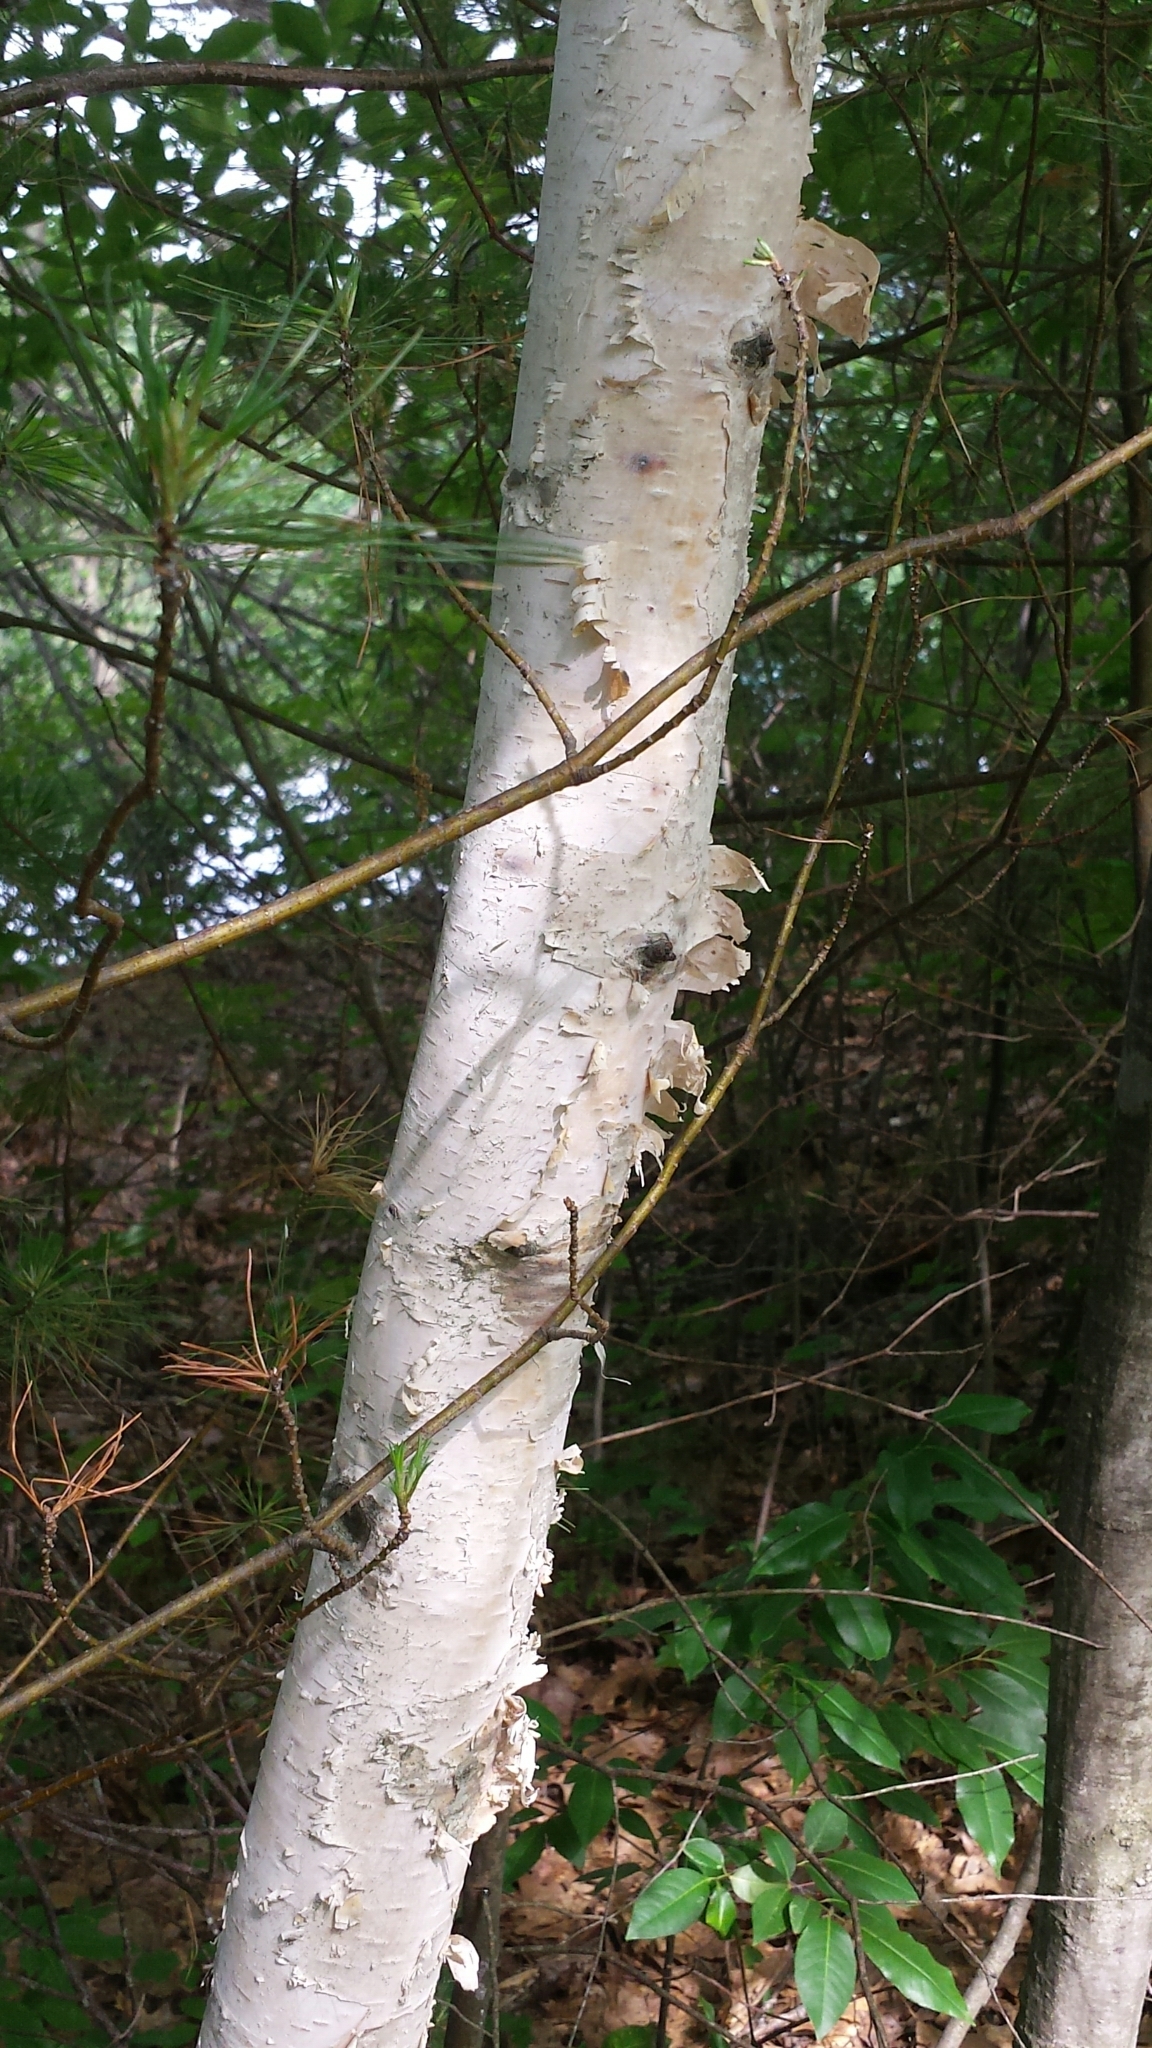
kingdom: Plantae
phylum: Tracheophyta
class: Magnoliopsida
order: Fagales
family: Betulaceae
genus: Betula
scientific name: Betula papyrifera
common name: Paper birch
